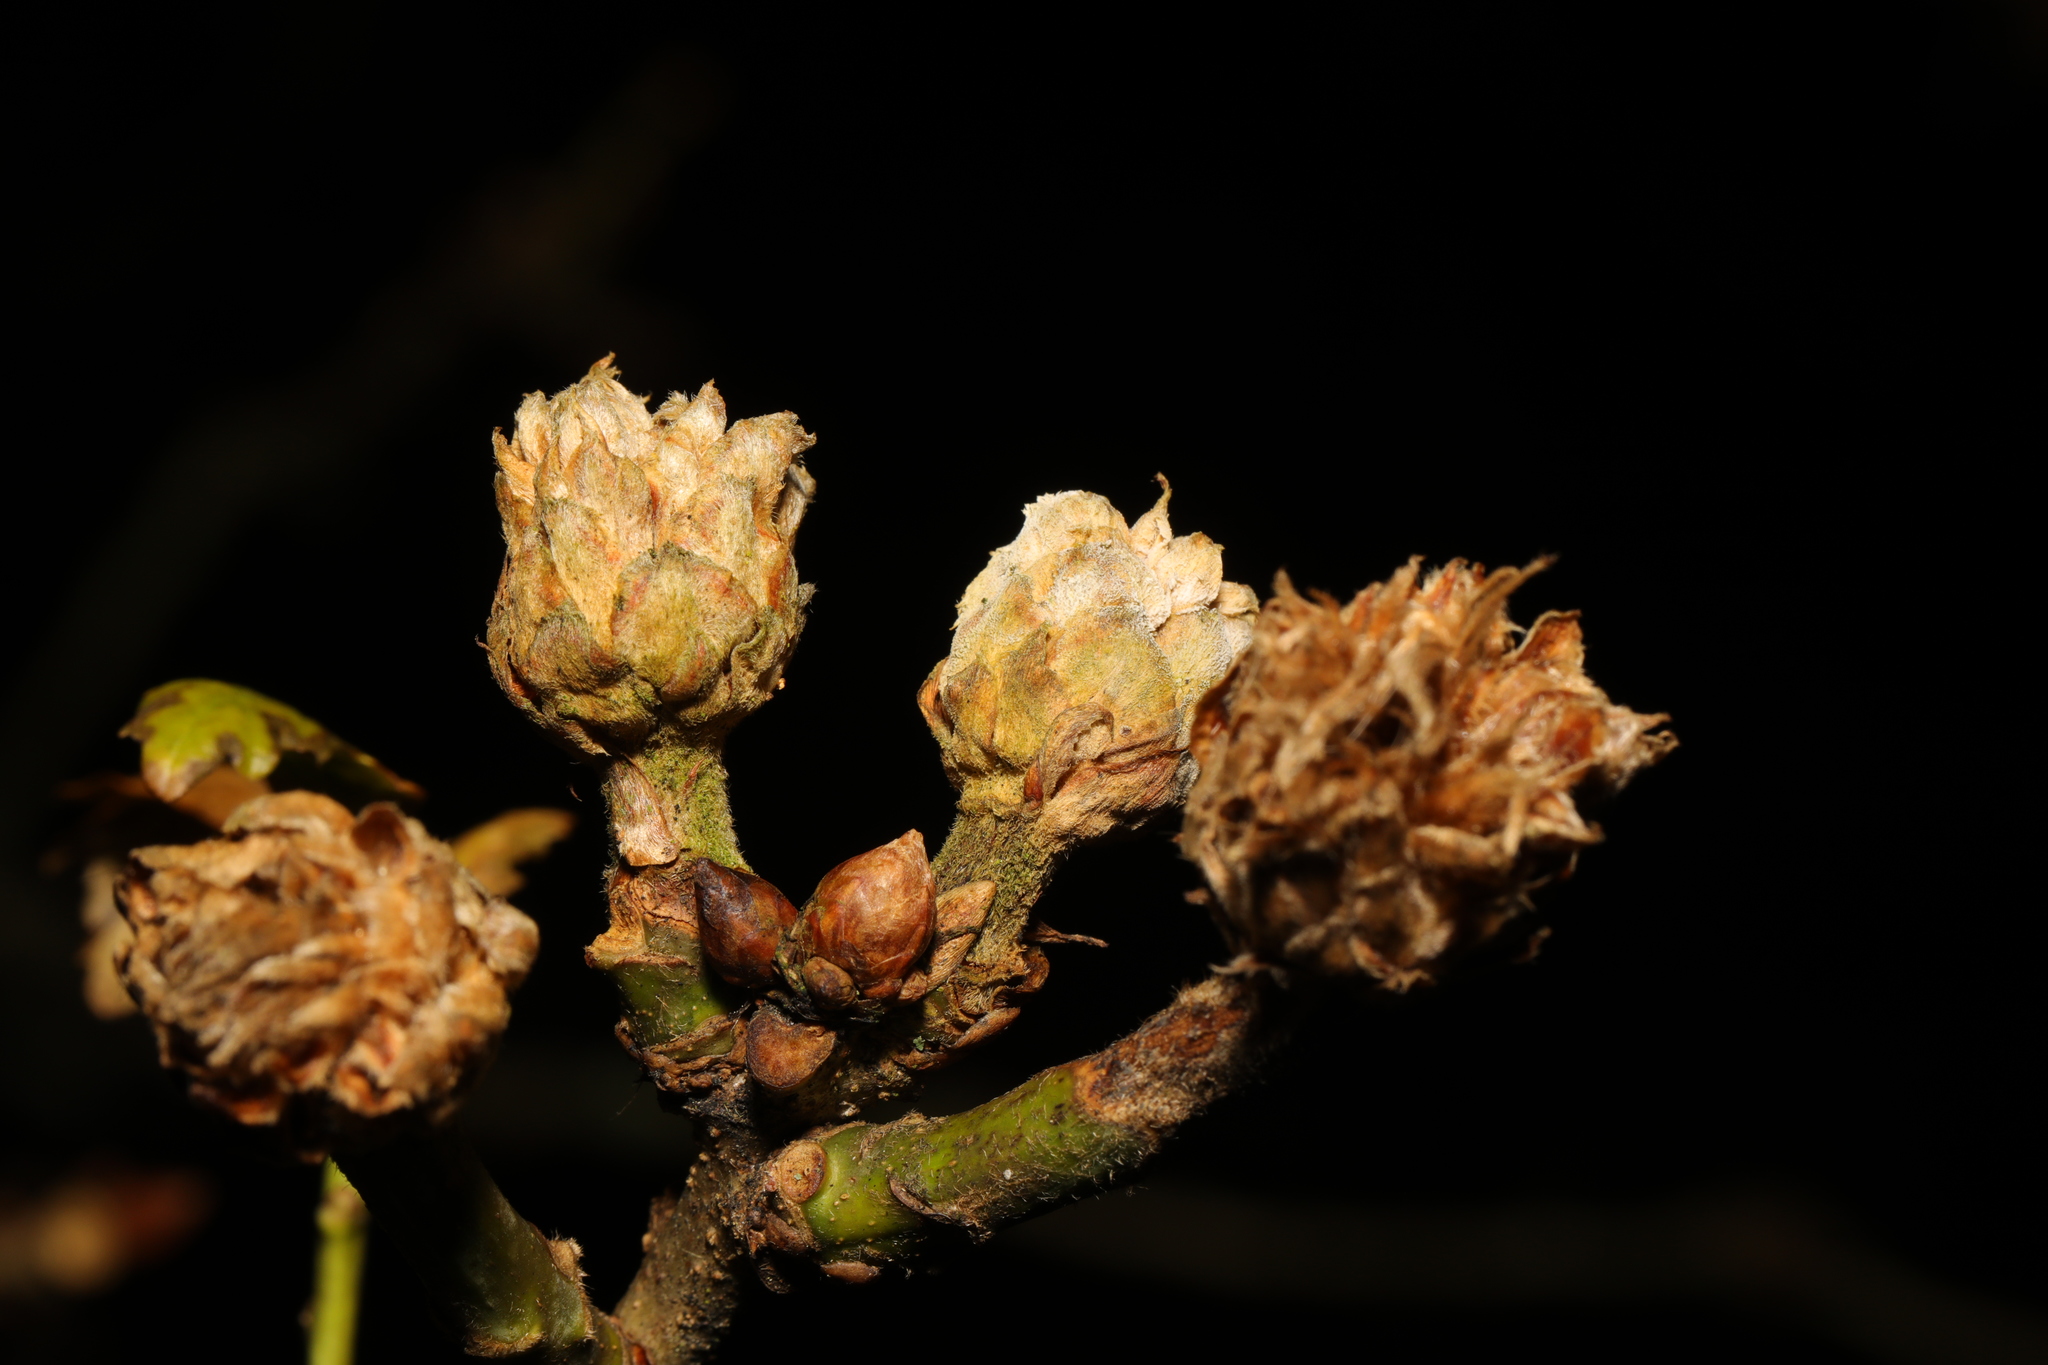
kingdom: Animalia
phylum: Arthropoda
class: Insecta
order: Hymenoptera
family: Cynipidae
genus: Andricus
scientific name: Andricus foecundatrix
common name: Artichoke gall
